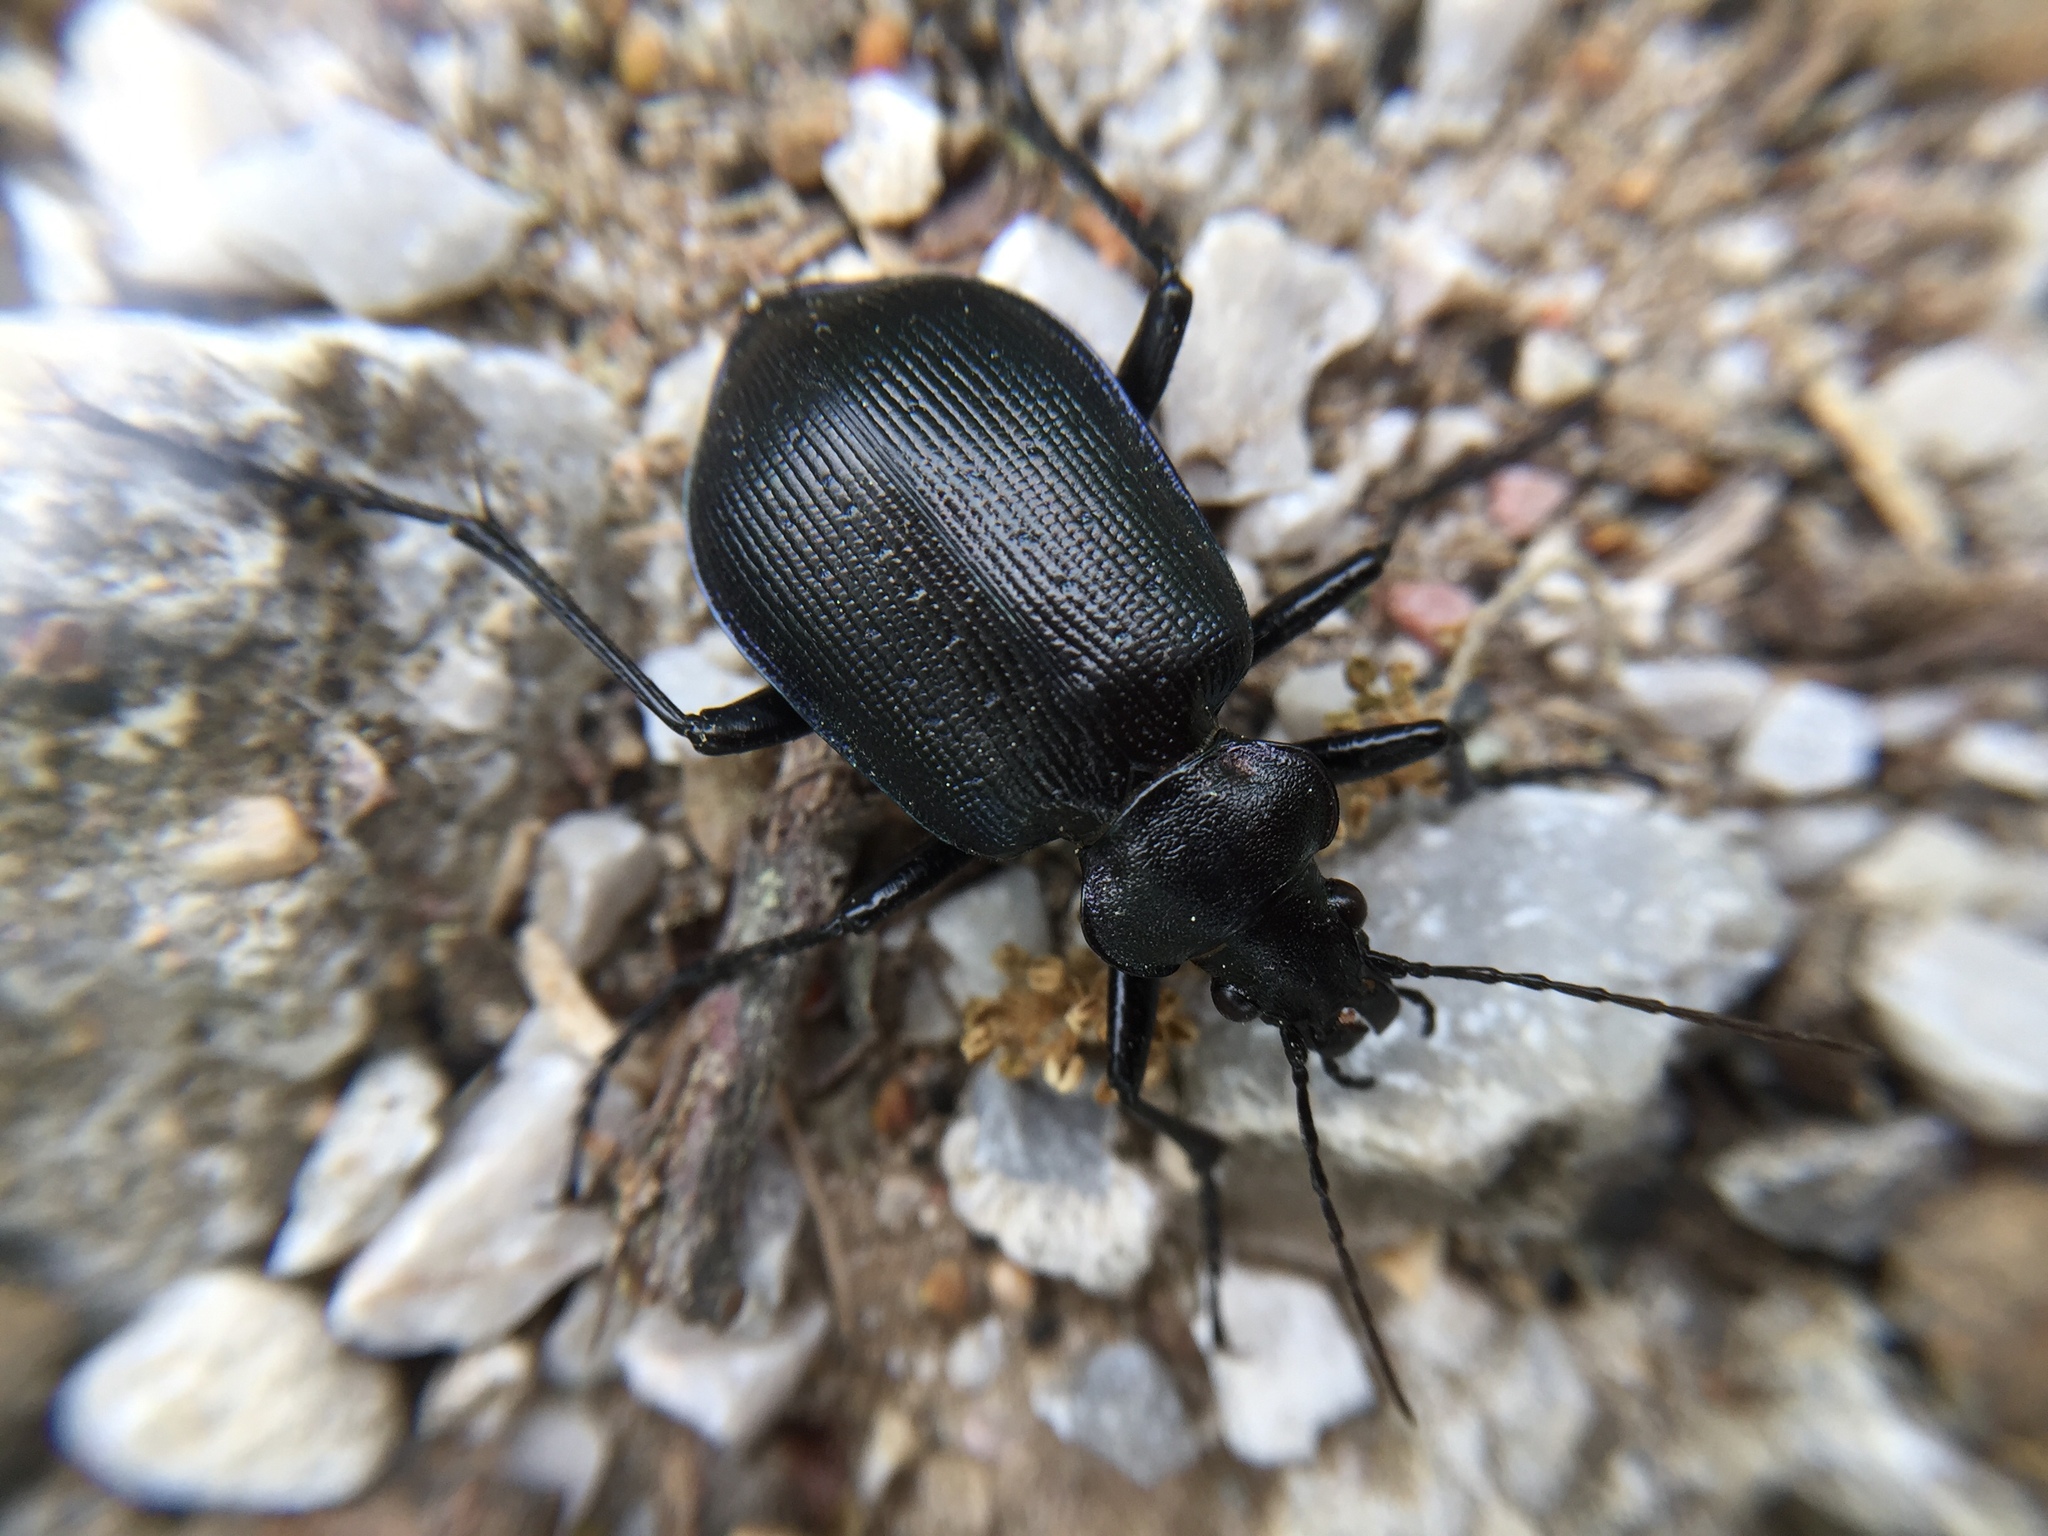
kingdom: Animalia
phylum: Arthropoda
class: Insecta
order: Coleoptera
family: Carabidae
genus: Calosoma
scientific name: Calosoma inquisitor
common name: Caterpillar-hunter
